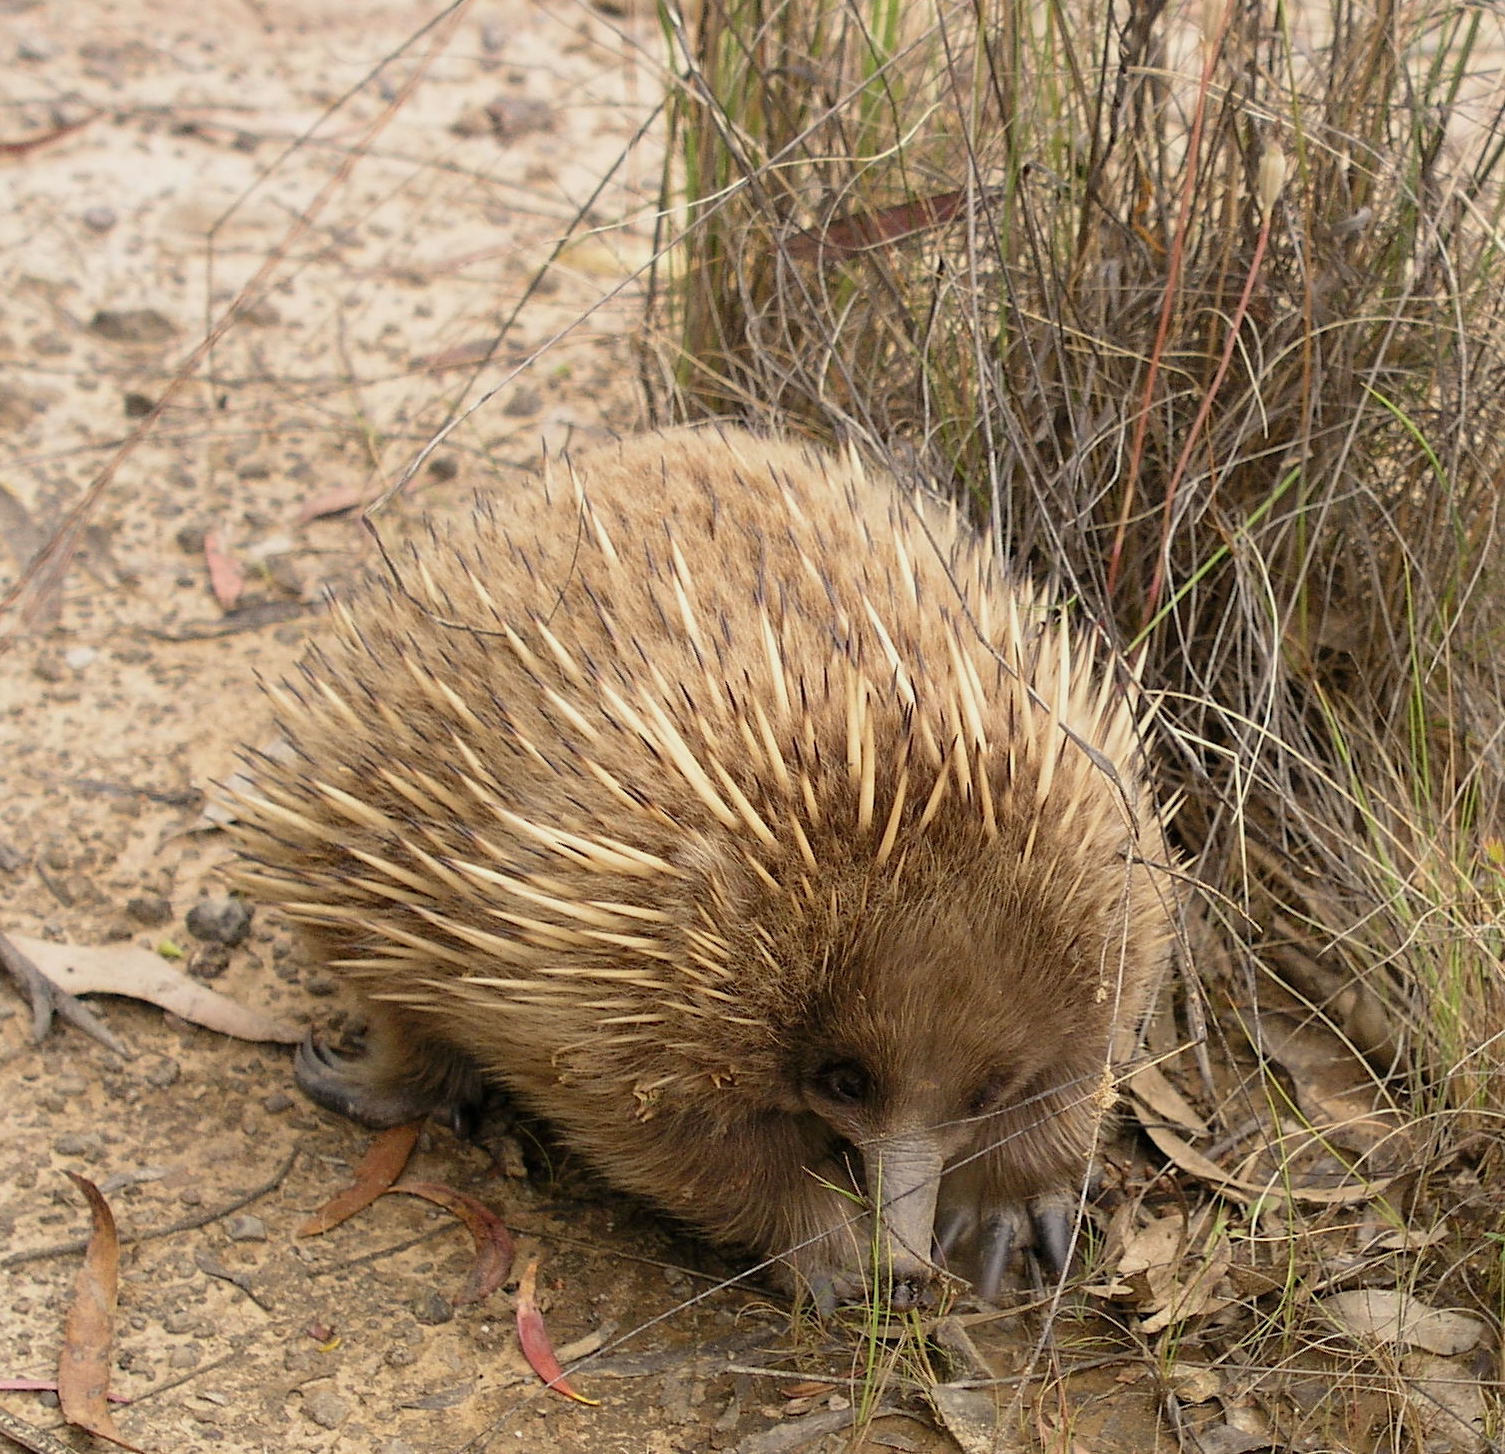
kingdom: Animalia
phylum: Chordata
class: Mammalia
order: Monotremata
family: Tachyglossidae
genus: Tachyglossus
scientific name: Tachyglossus aculeatus
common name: Short-beaked echidna
